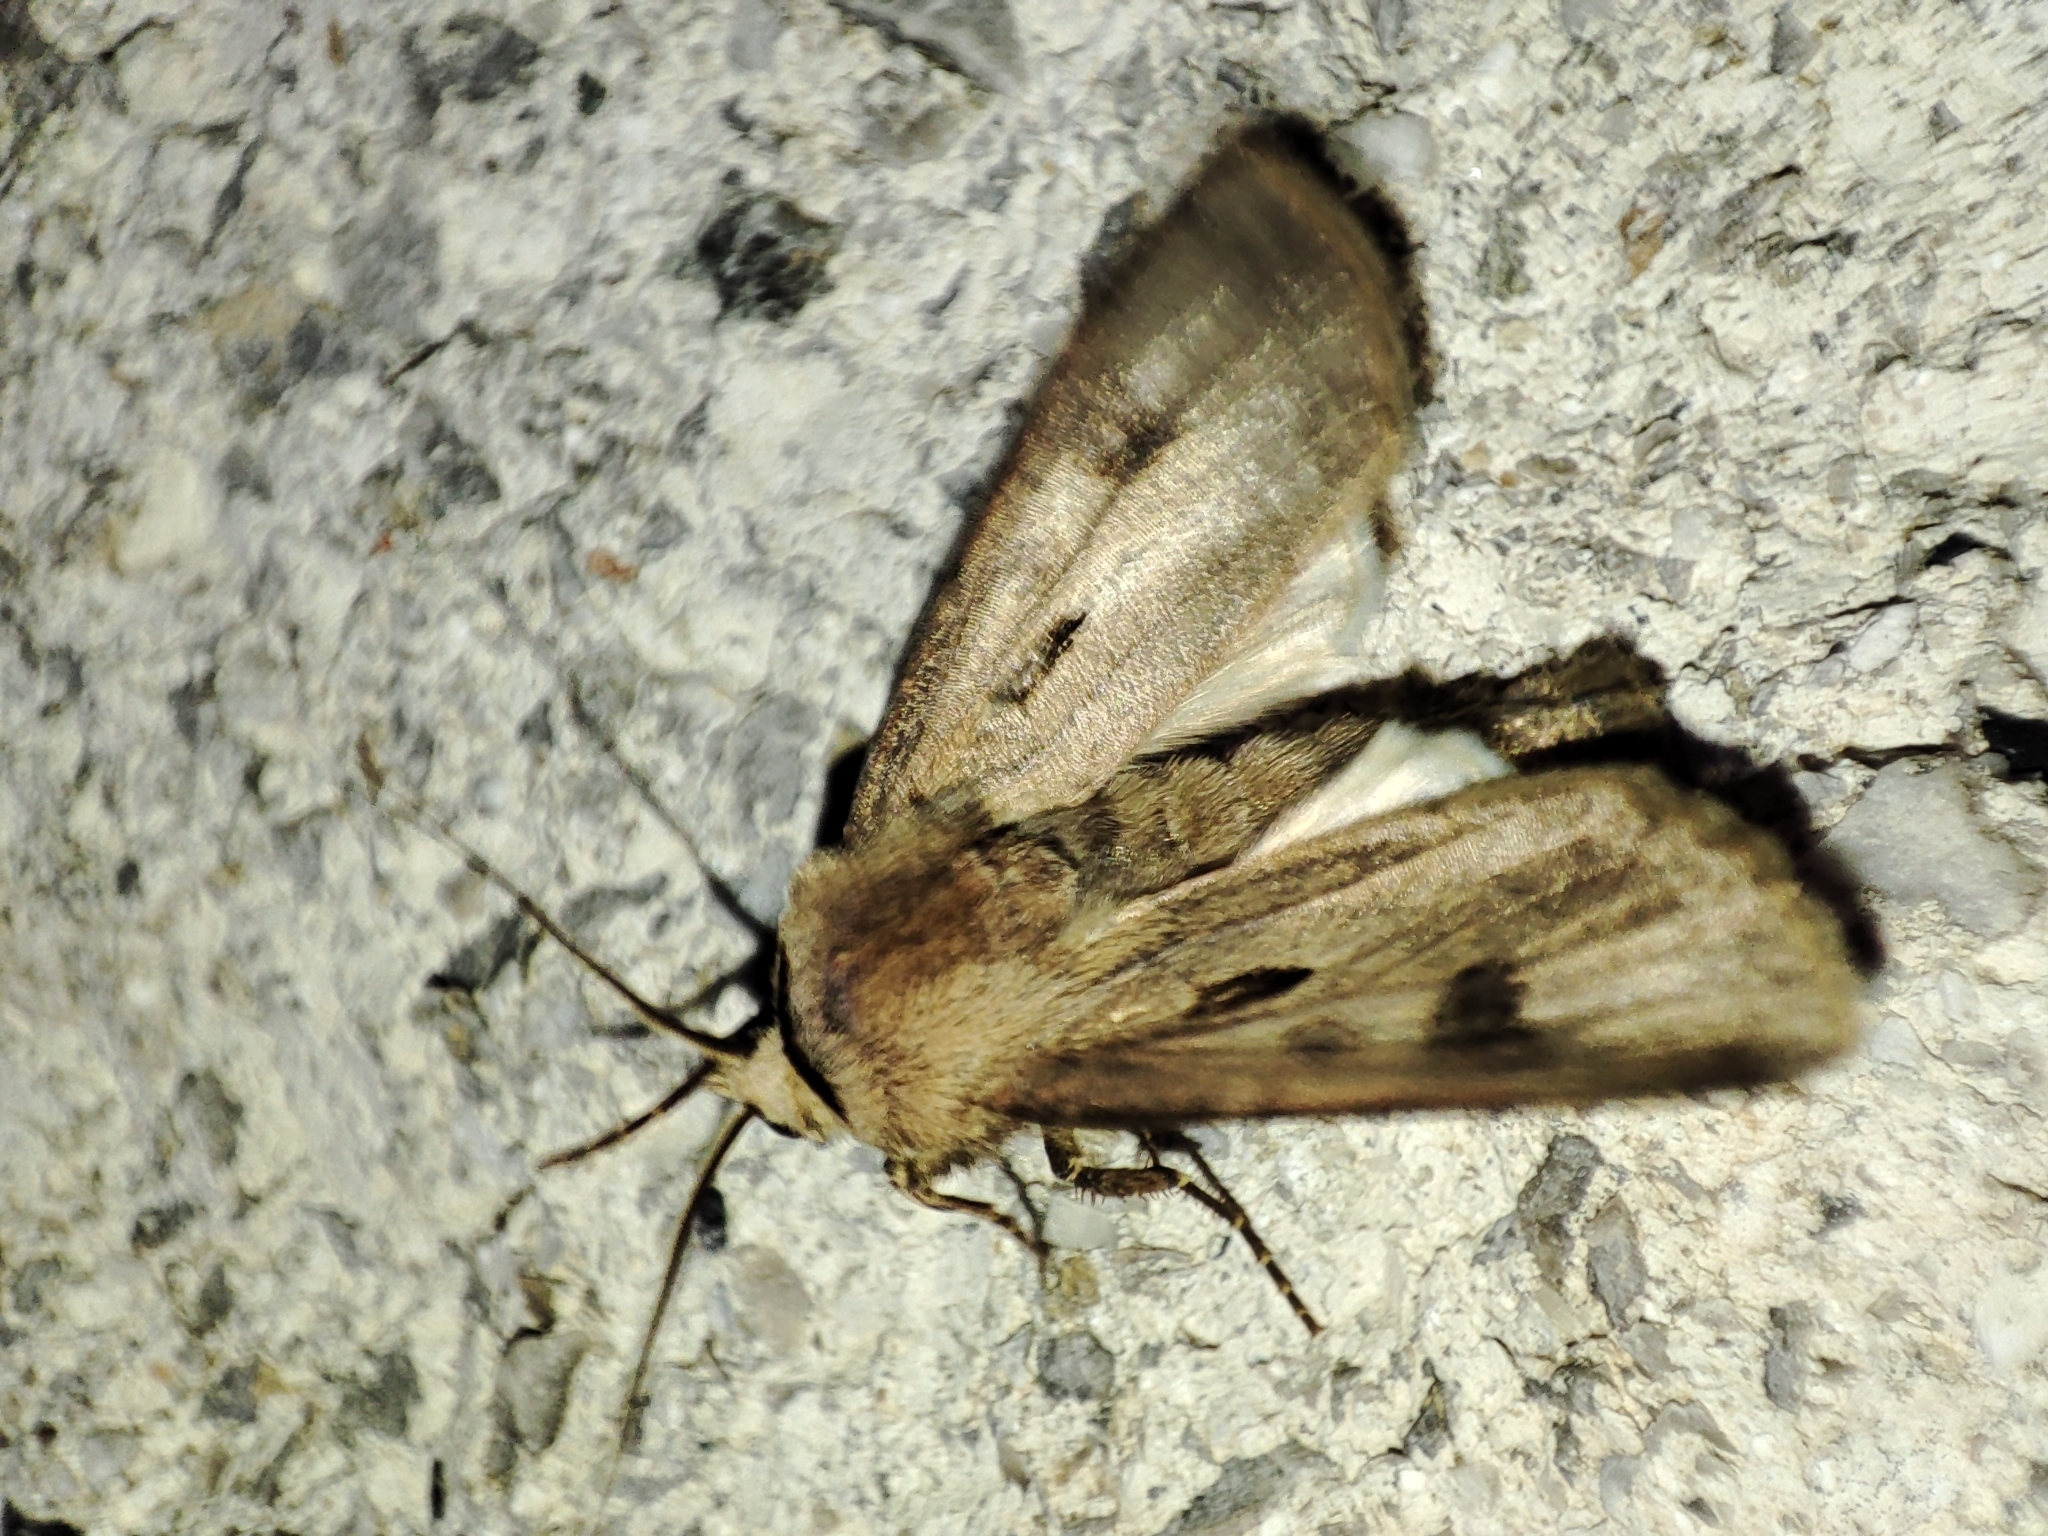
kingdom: Animalia
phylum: Arthropoda
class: Insecta
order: Lepidoptera
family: Noctuidae
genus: Agrotis
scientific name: Agrotis exclamationis
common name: Heart and dart
